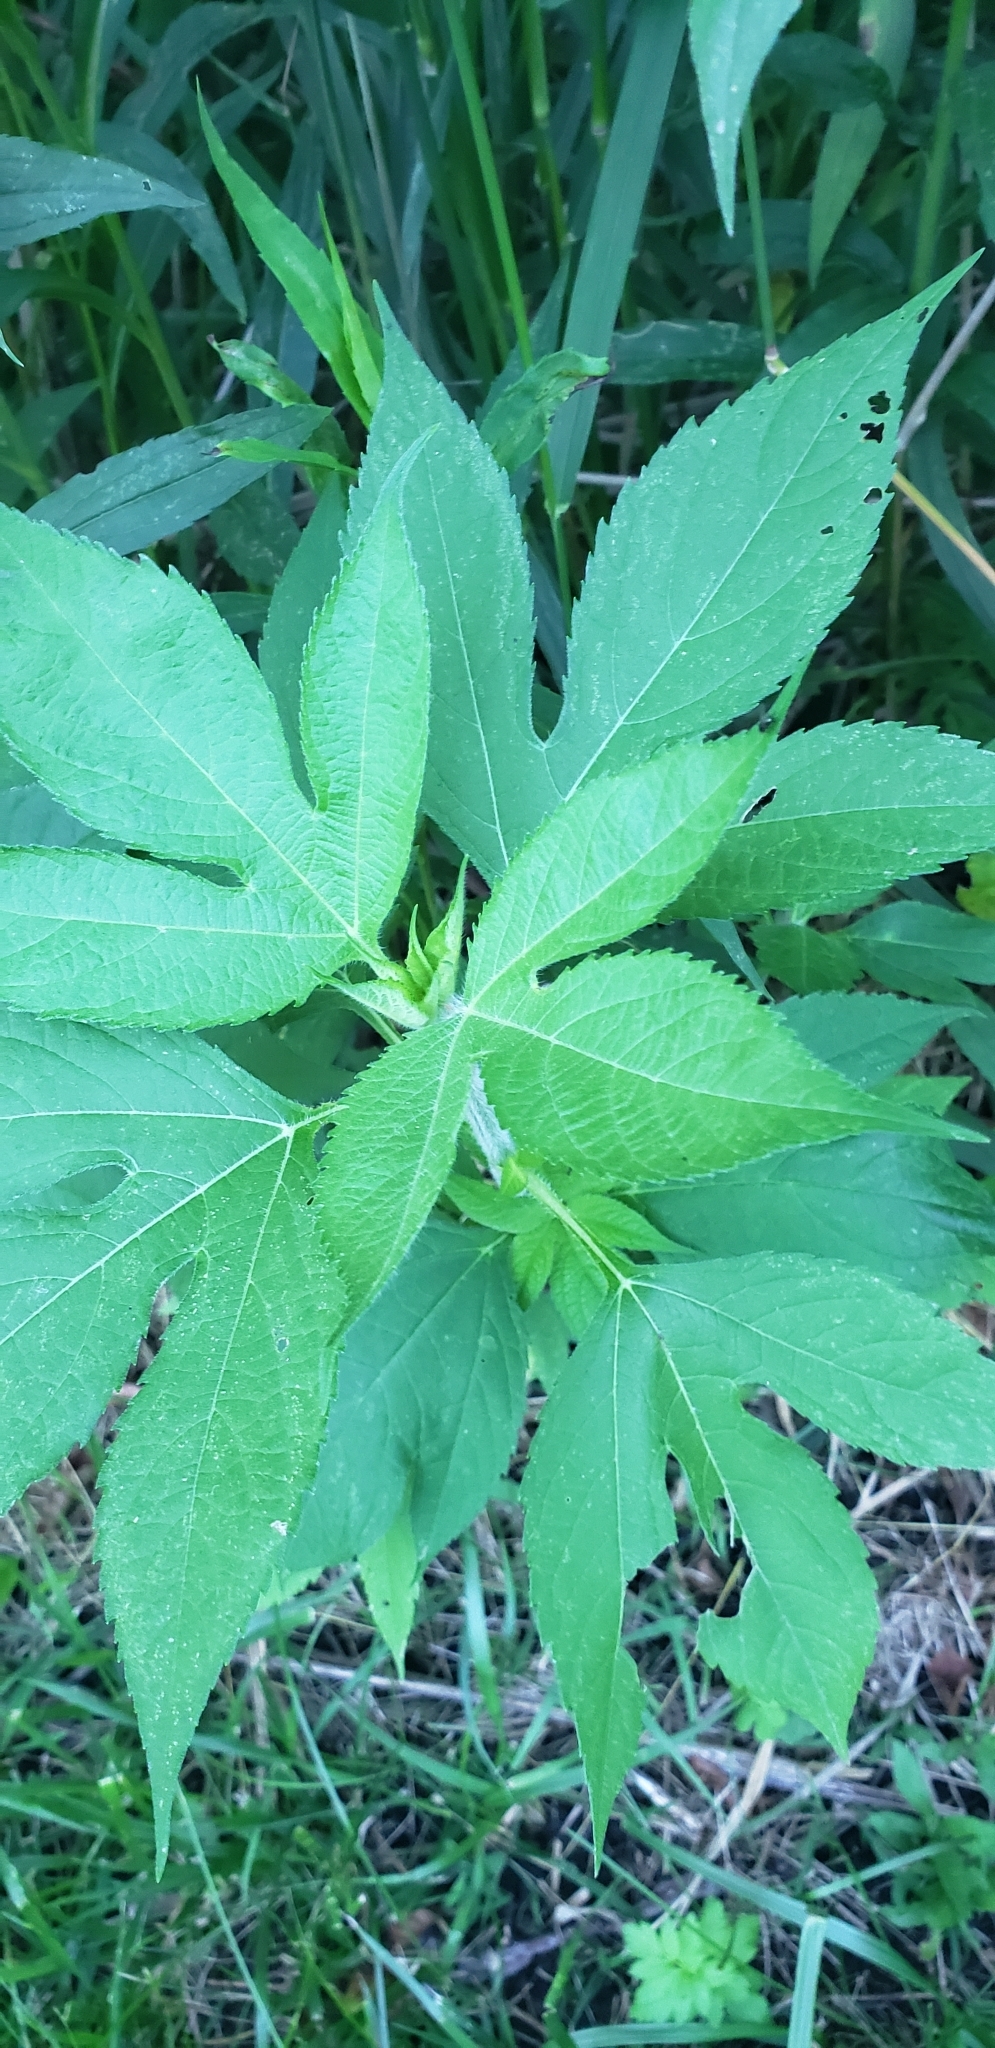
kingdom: Plantae
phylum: Tracheophyta
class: Magnoliopsida
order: Asterales
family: Asteraceae
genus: Ambrosia
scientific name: Ambrosia trifida
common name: Giant ragweed
